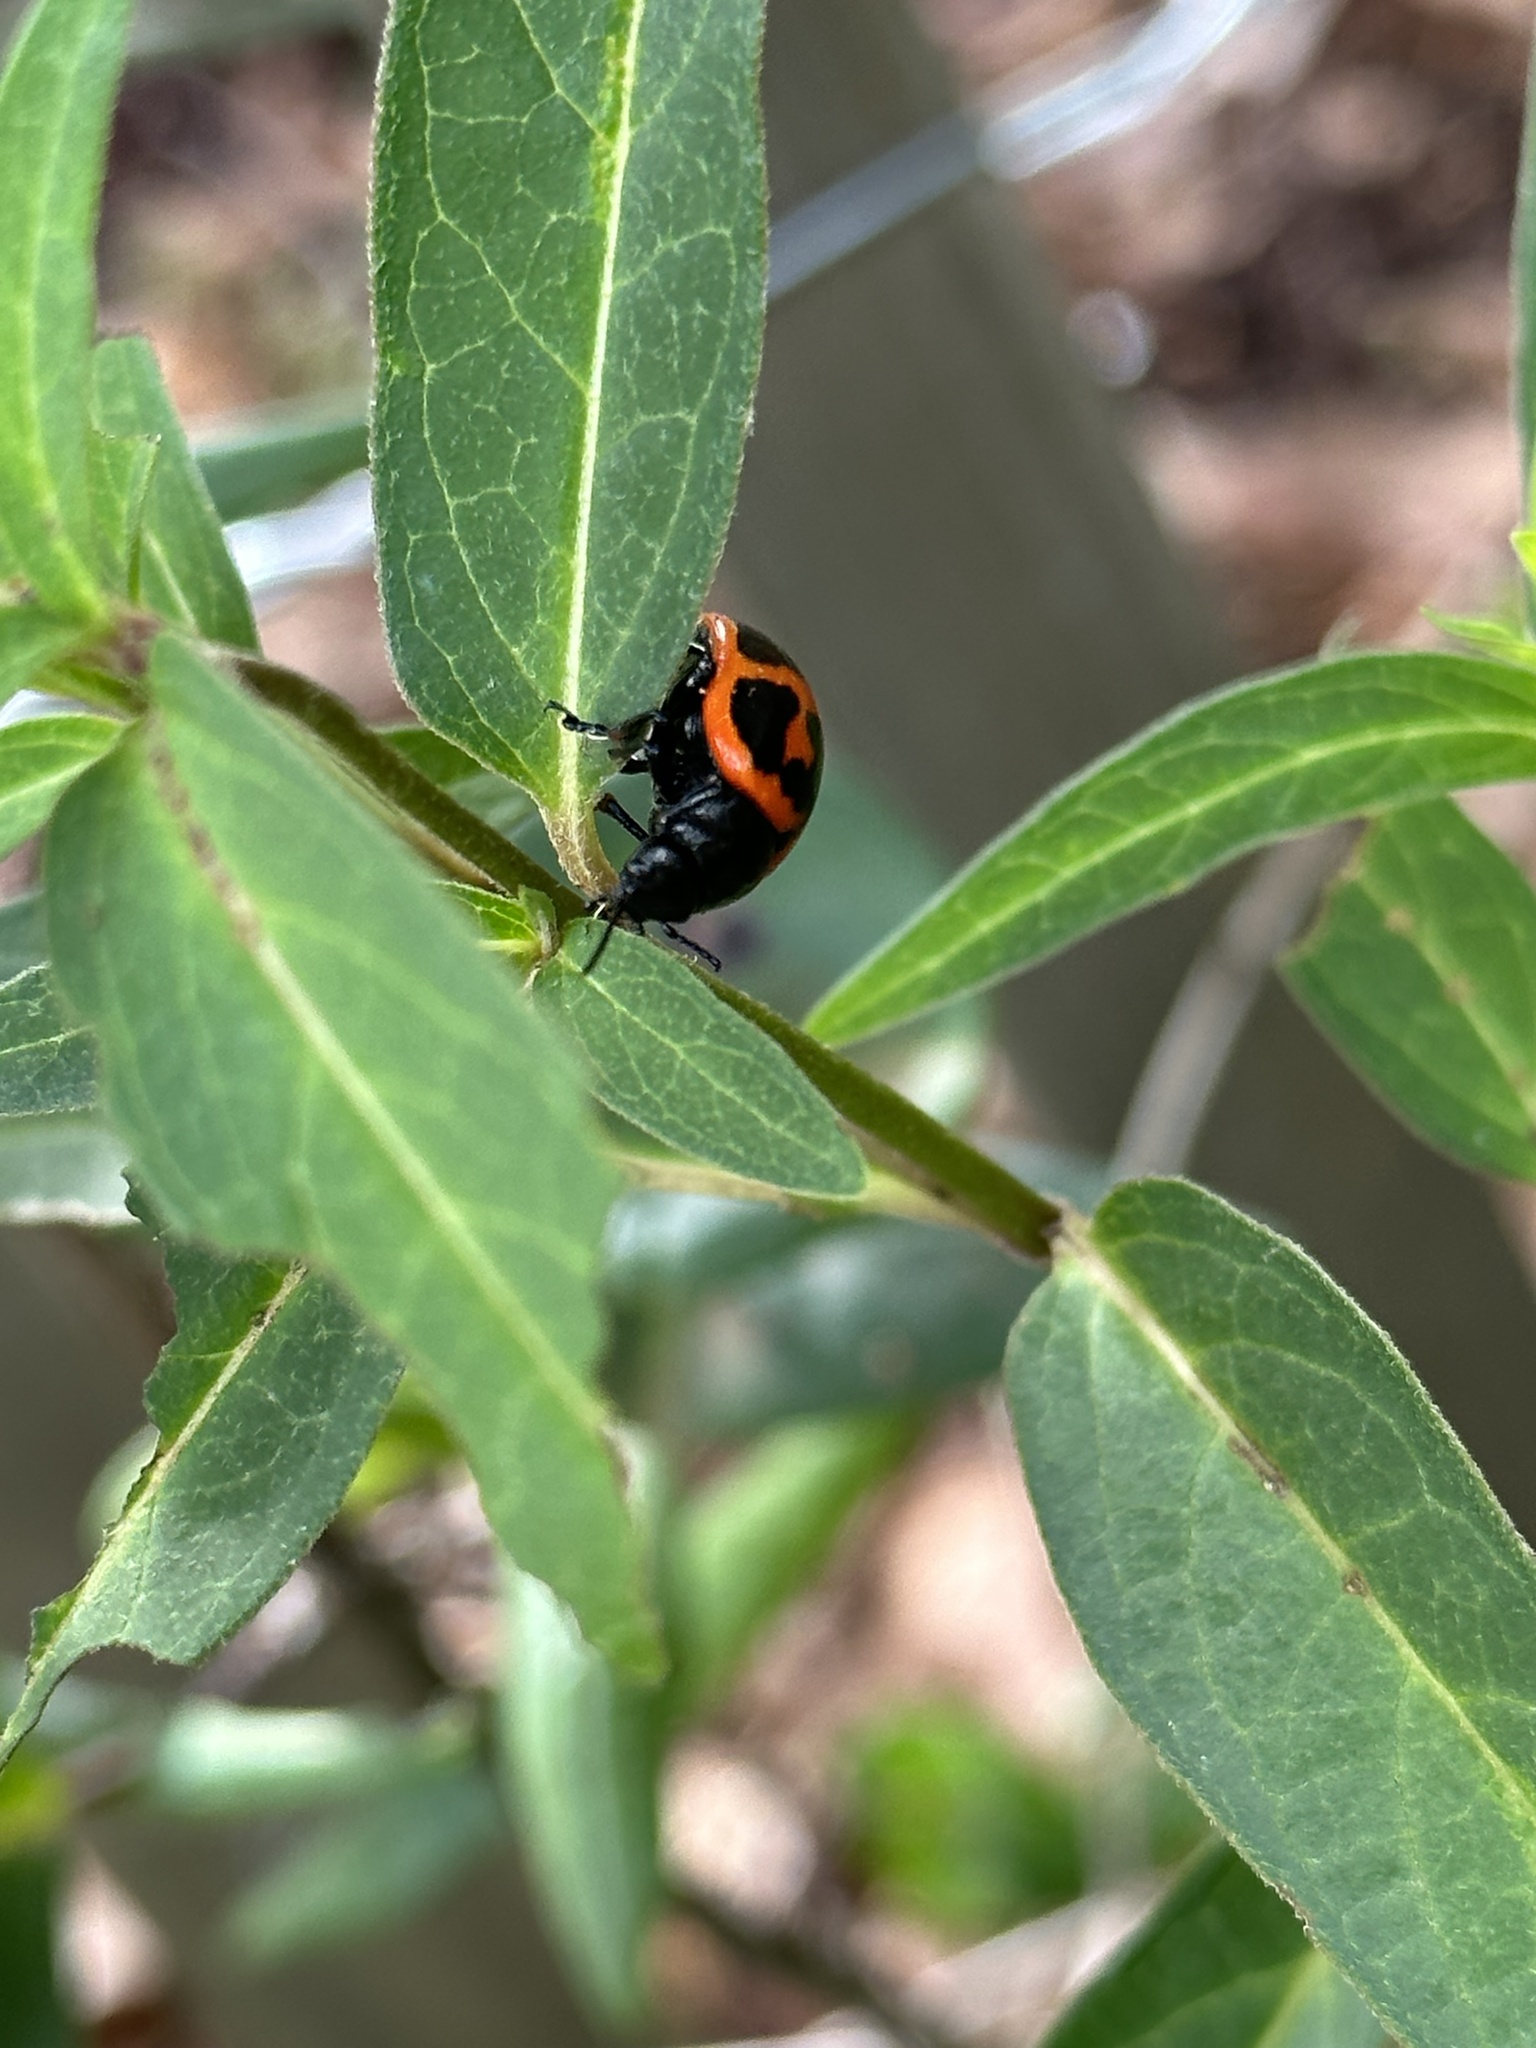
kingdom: Animalia
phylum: Arthropoda
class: Insecta
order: Coleoptera
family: Chrysomelidae
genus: Labidomera
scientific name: Labidomera clivicollis
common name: Swamp milkweed leaf beetle
